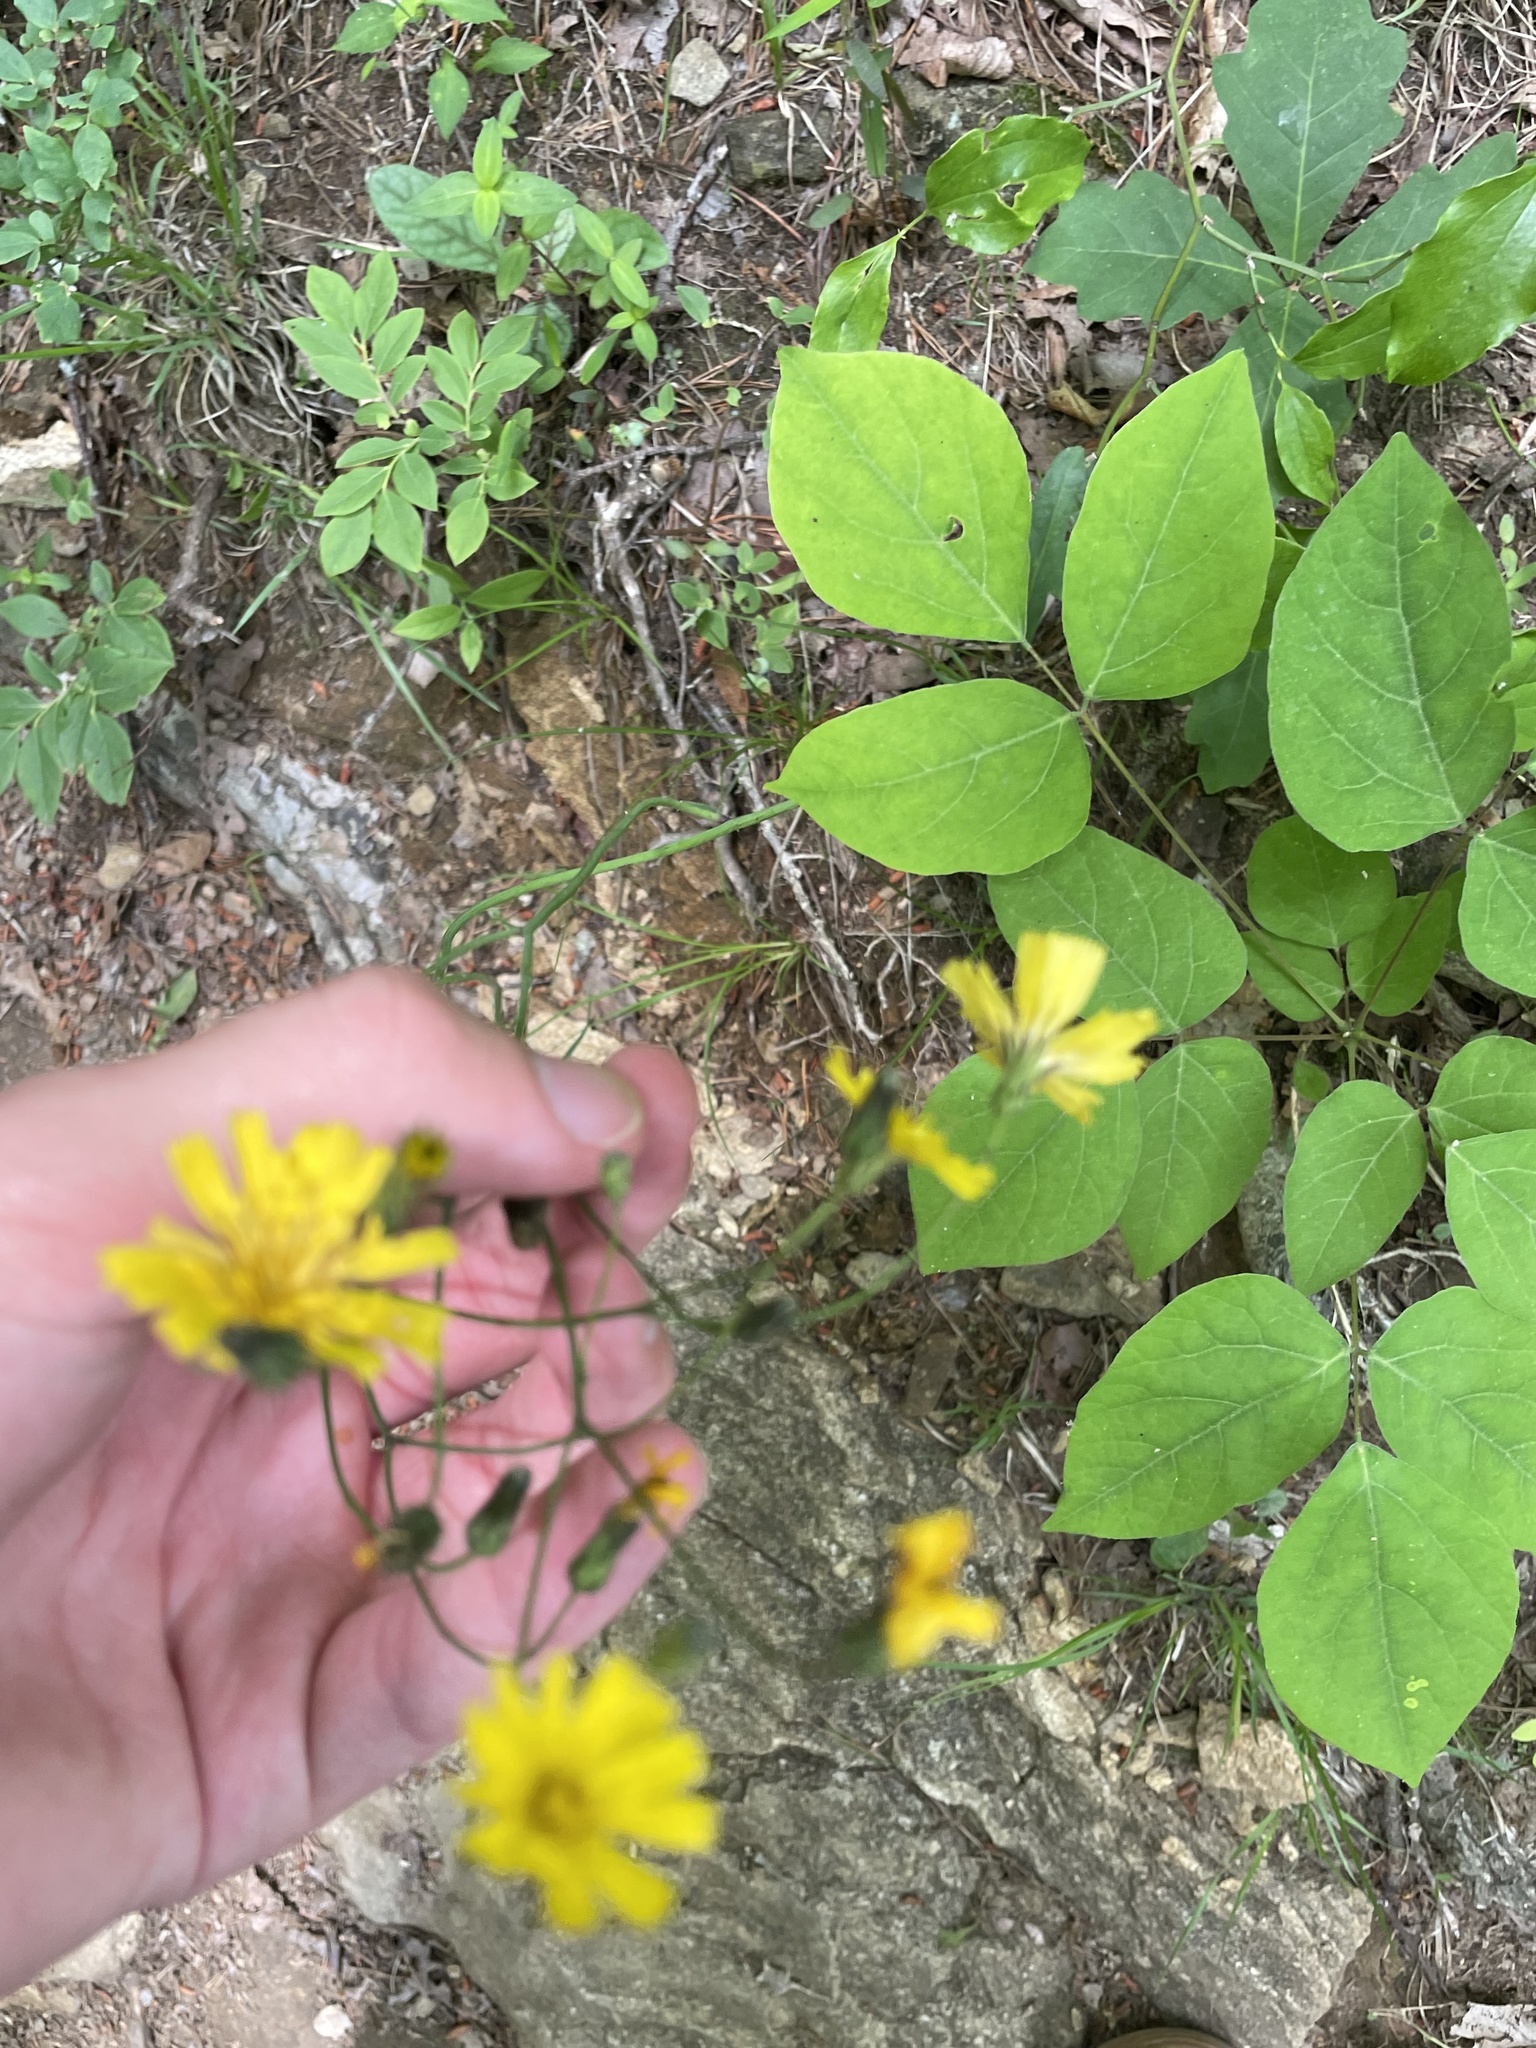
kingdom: Plantae
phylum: Tracheophyta
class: Magnoliopsida
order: Asterales
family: Asteraceae
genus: Hieracium
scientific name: Hieracium venosum
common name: Rattlesnake hawkweed
